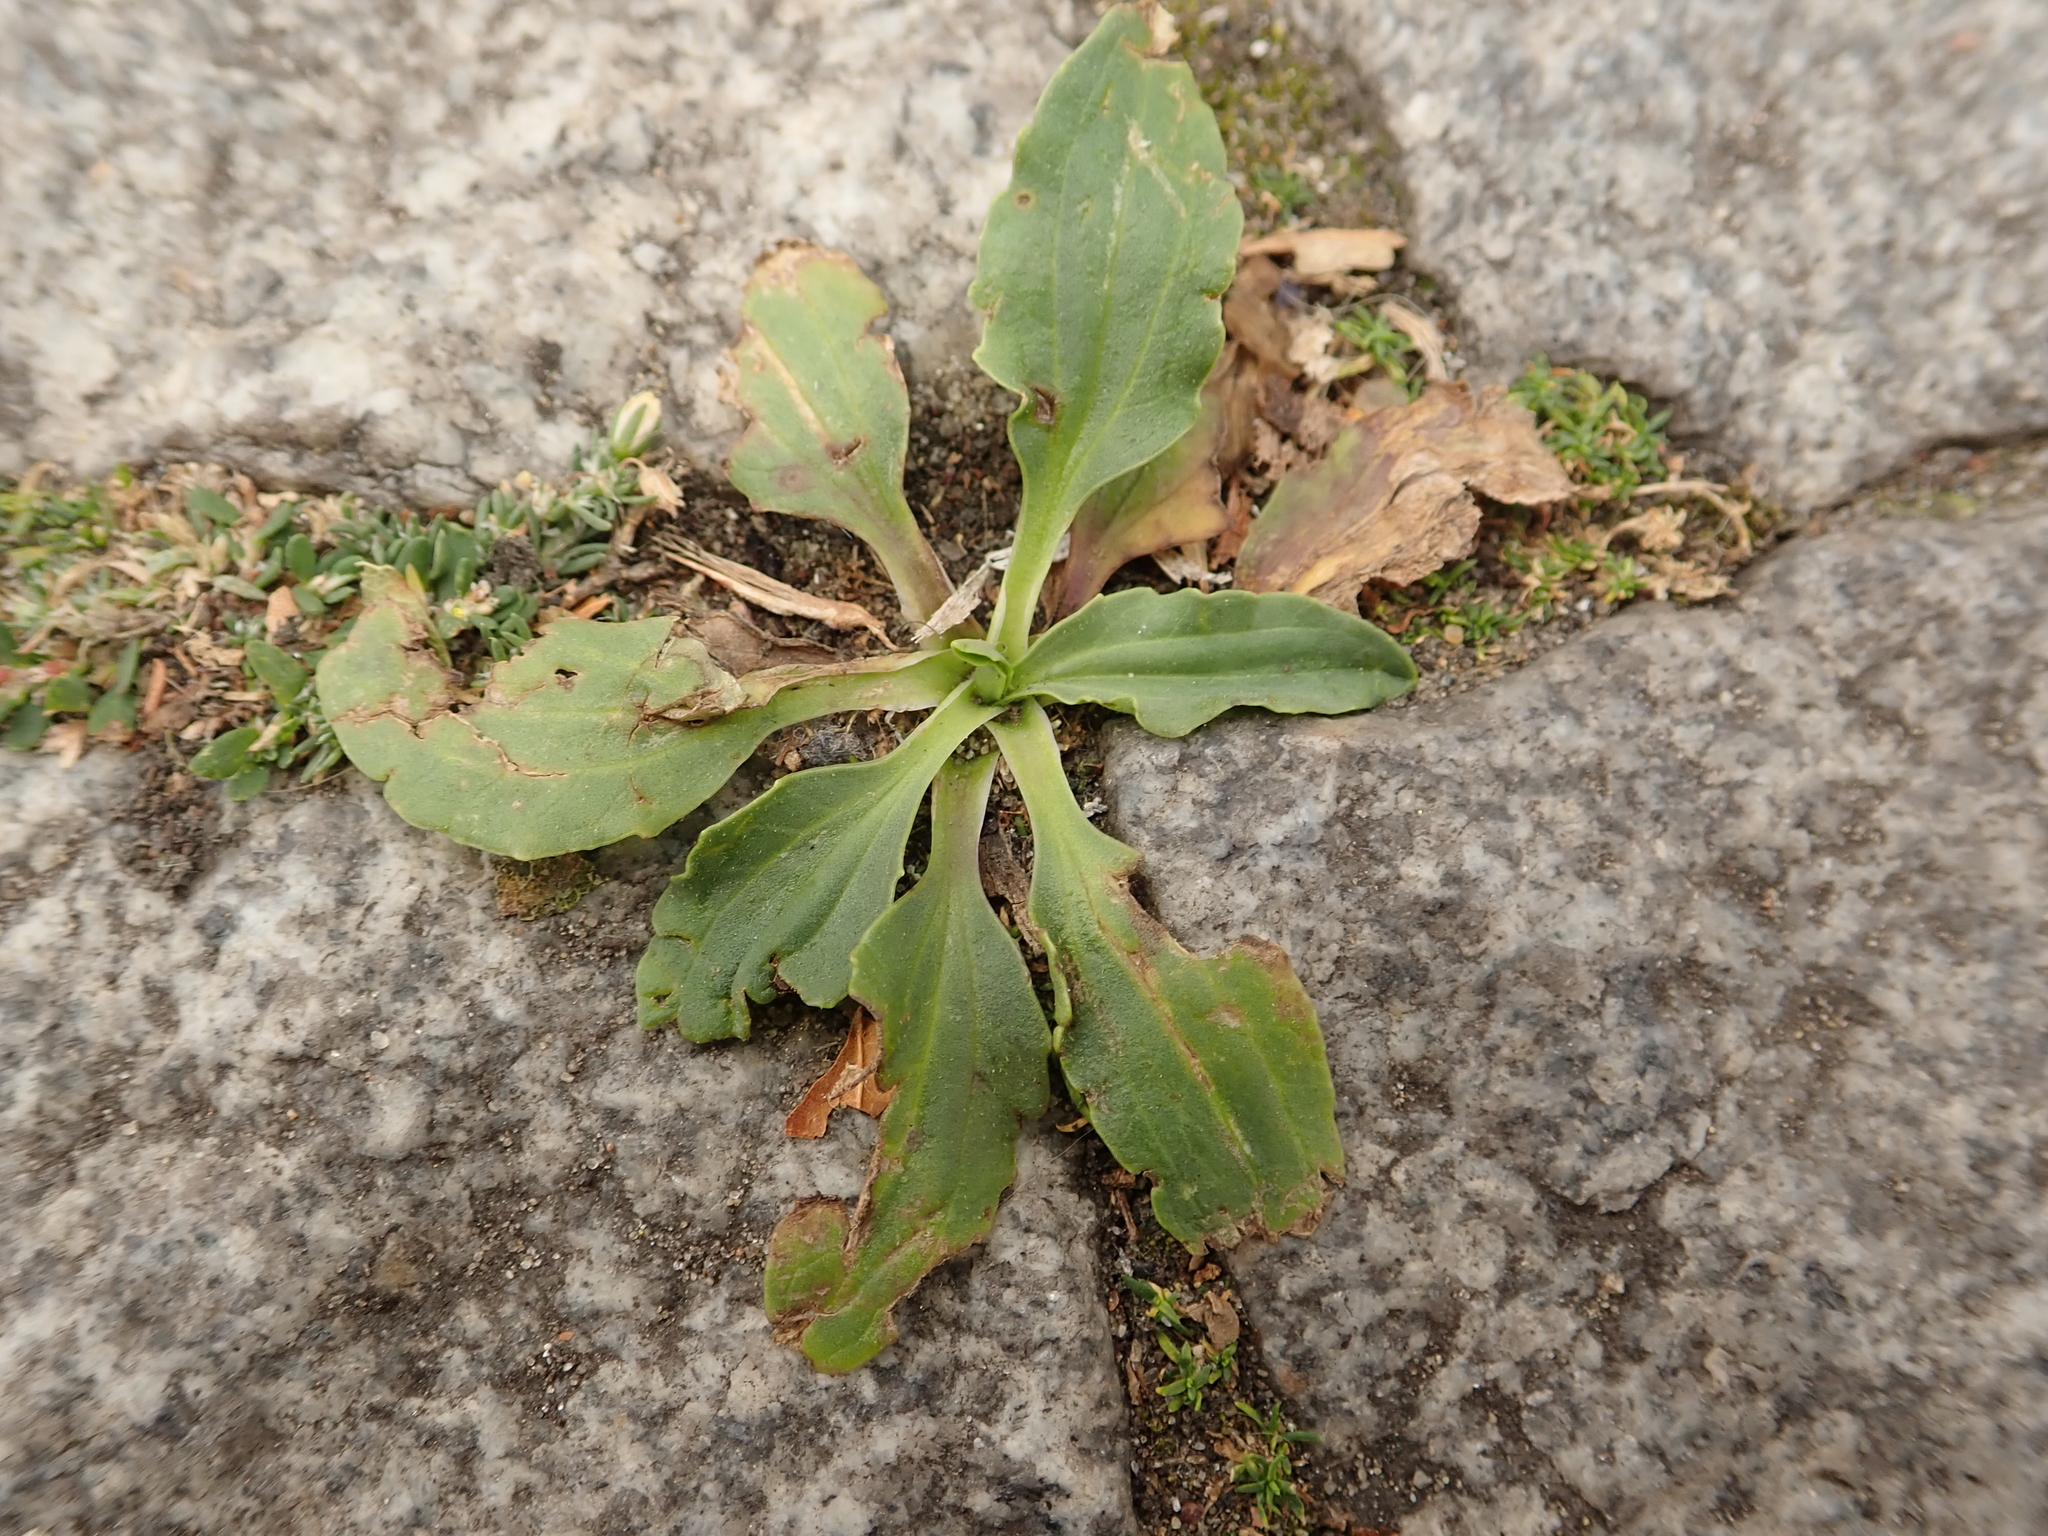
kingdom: Plantae
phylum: Tracheophyta
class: Magnoliopsida
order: Lamiales
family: Plantaginaceae
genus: Plantago
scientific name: Plantago major
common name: Common plantain
